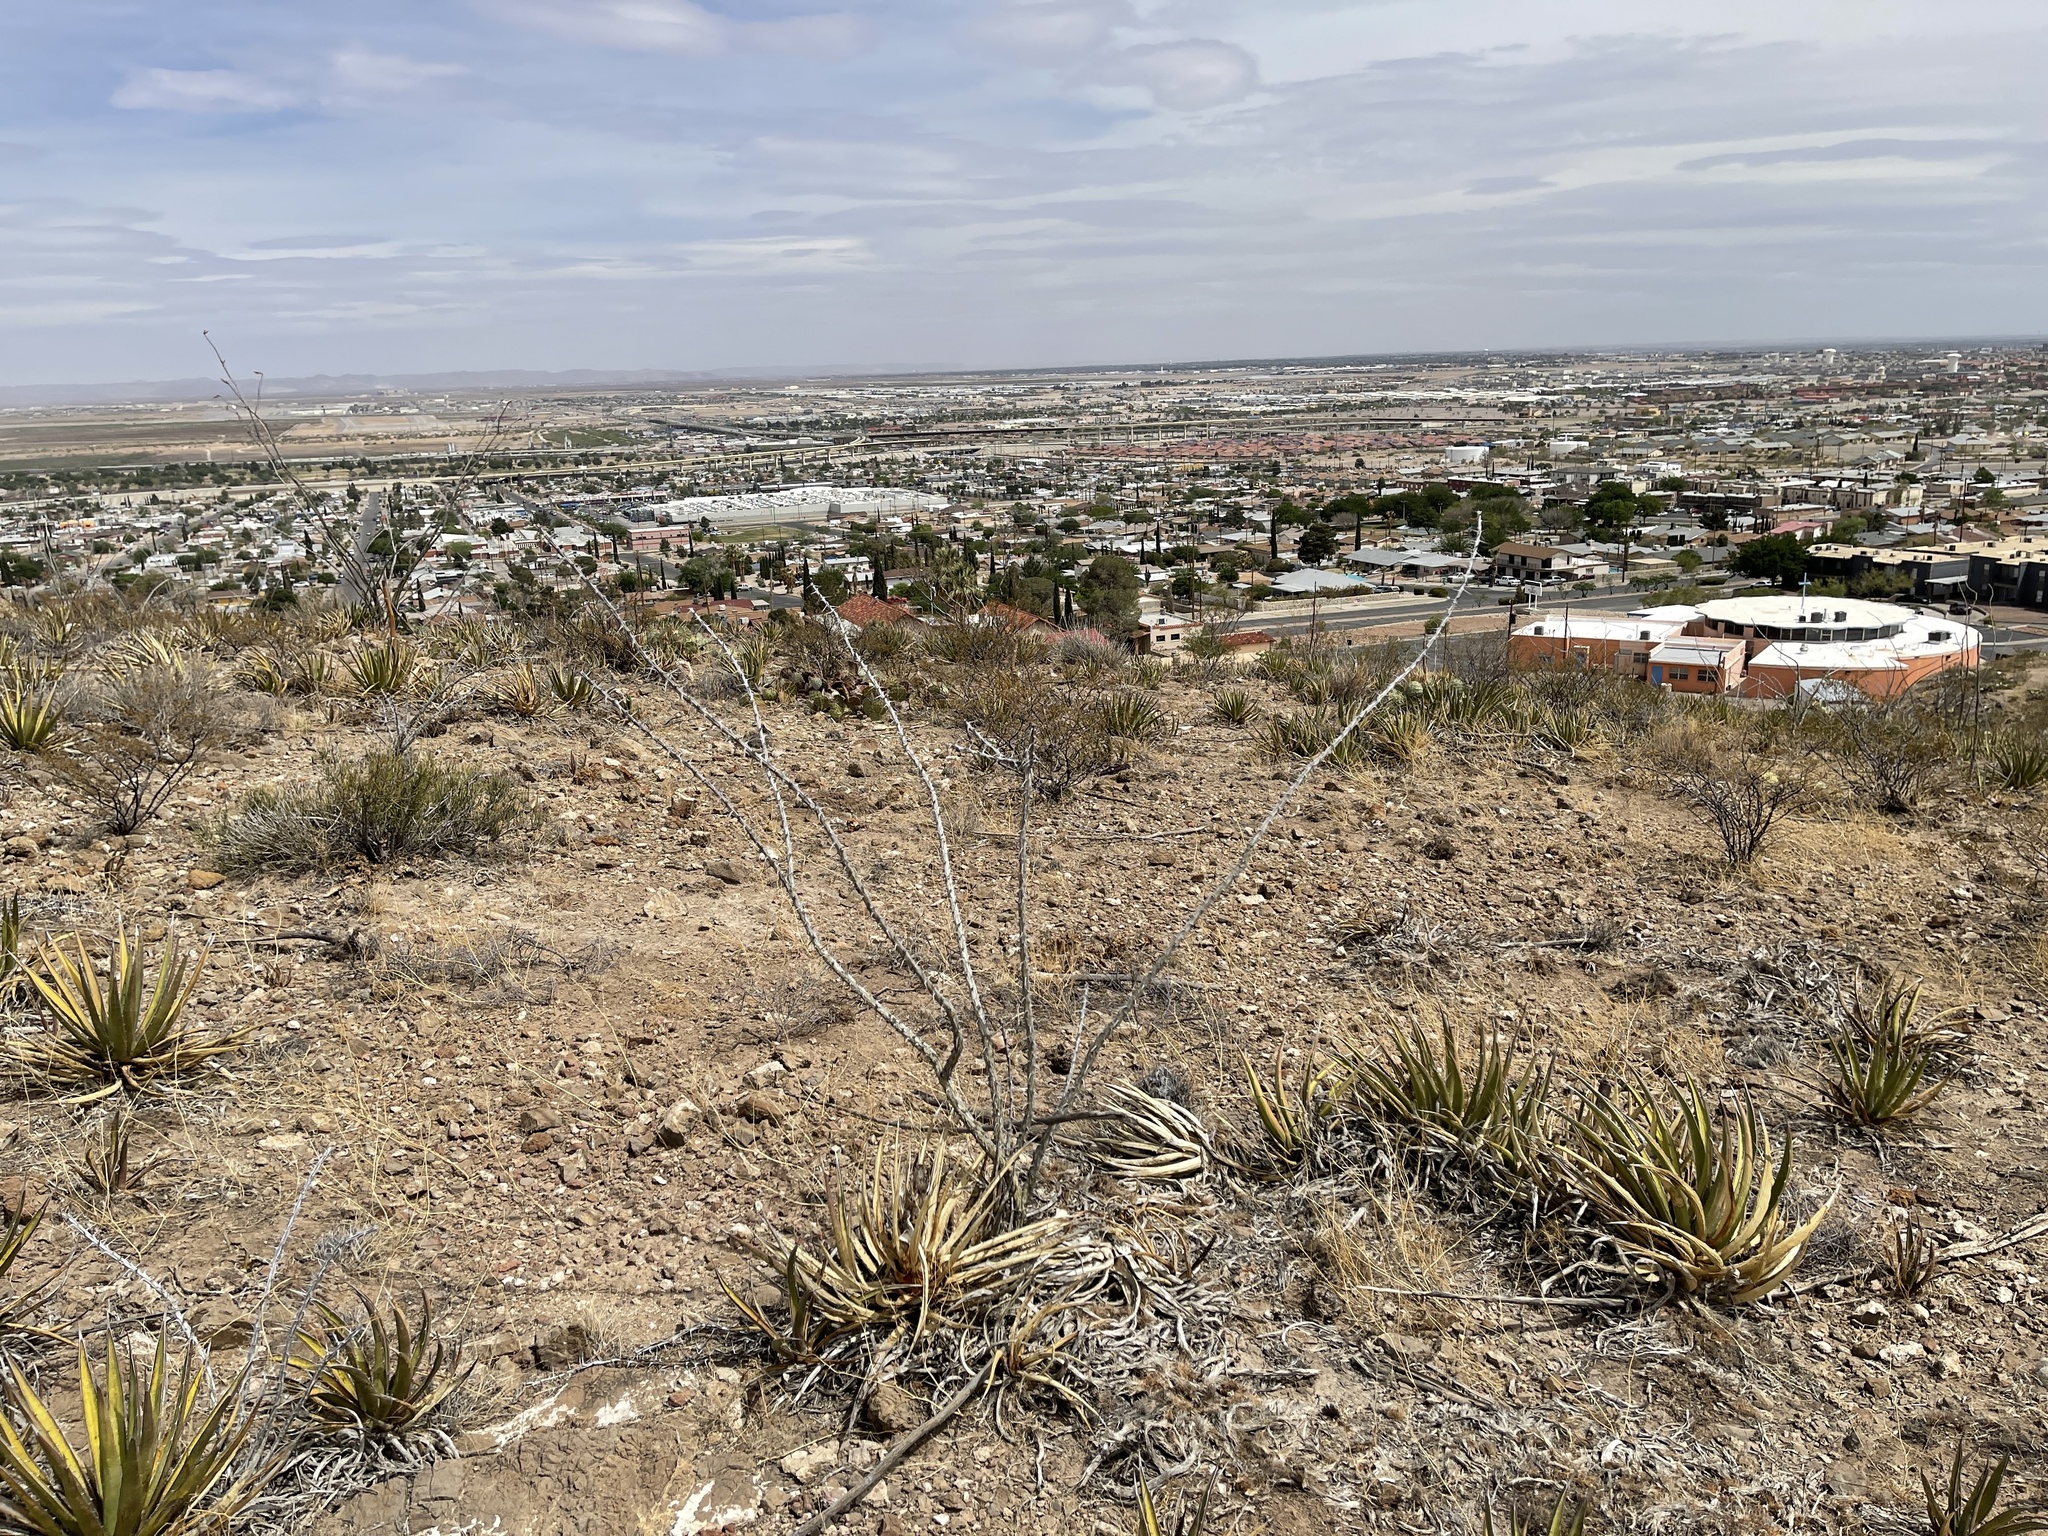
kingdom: Plantae
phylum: Tracheophyta
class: Magnoliopsida
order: Ericales
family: Fouquieriaceae
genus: Fouquieria
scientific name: Fouquieria splendens
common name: Vine-cactus
